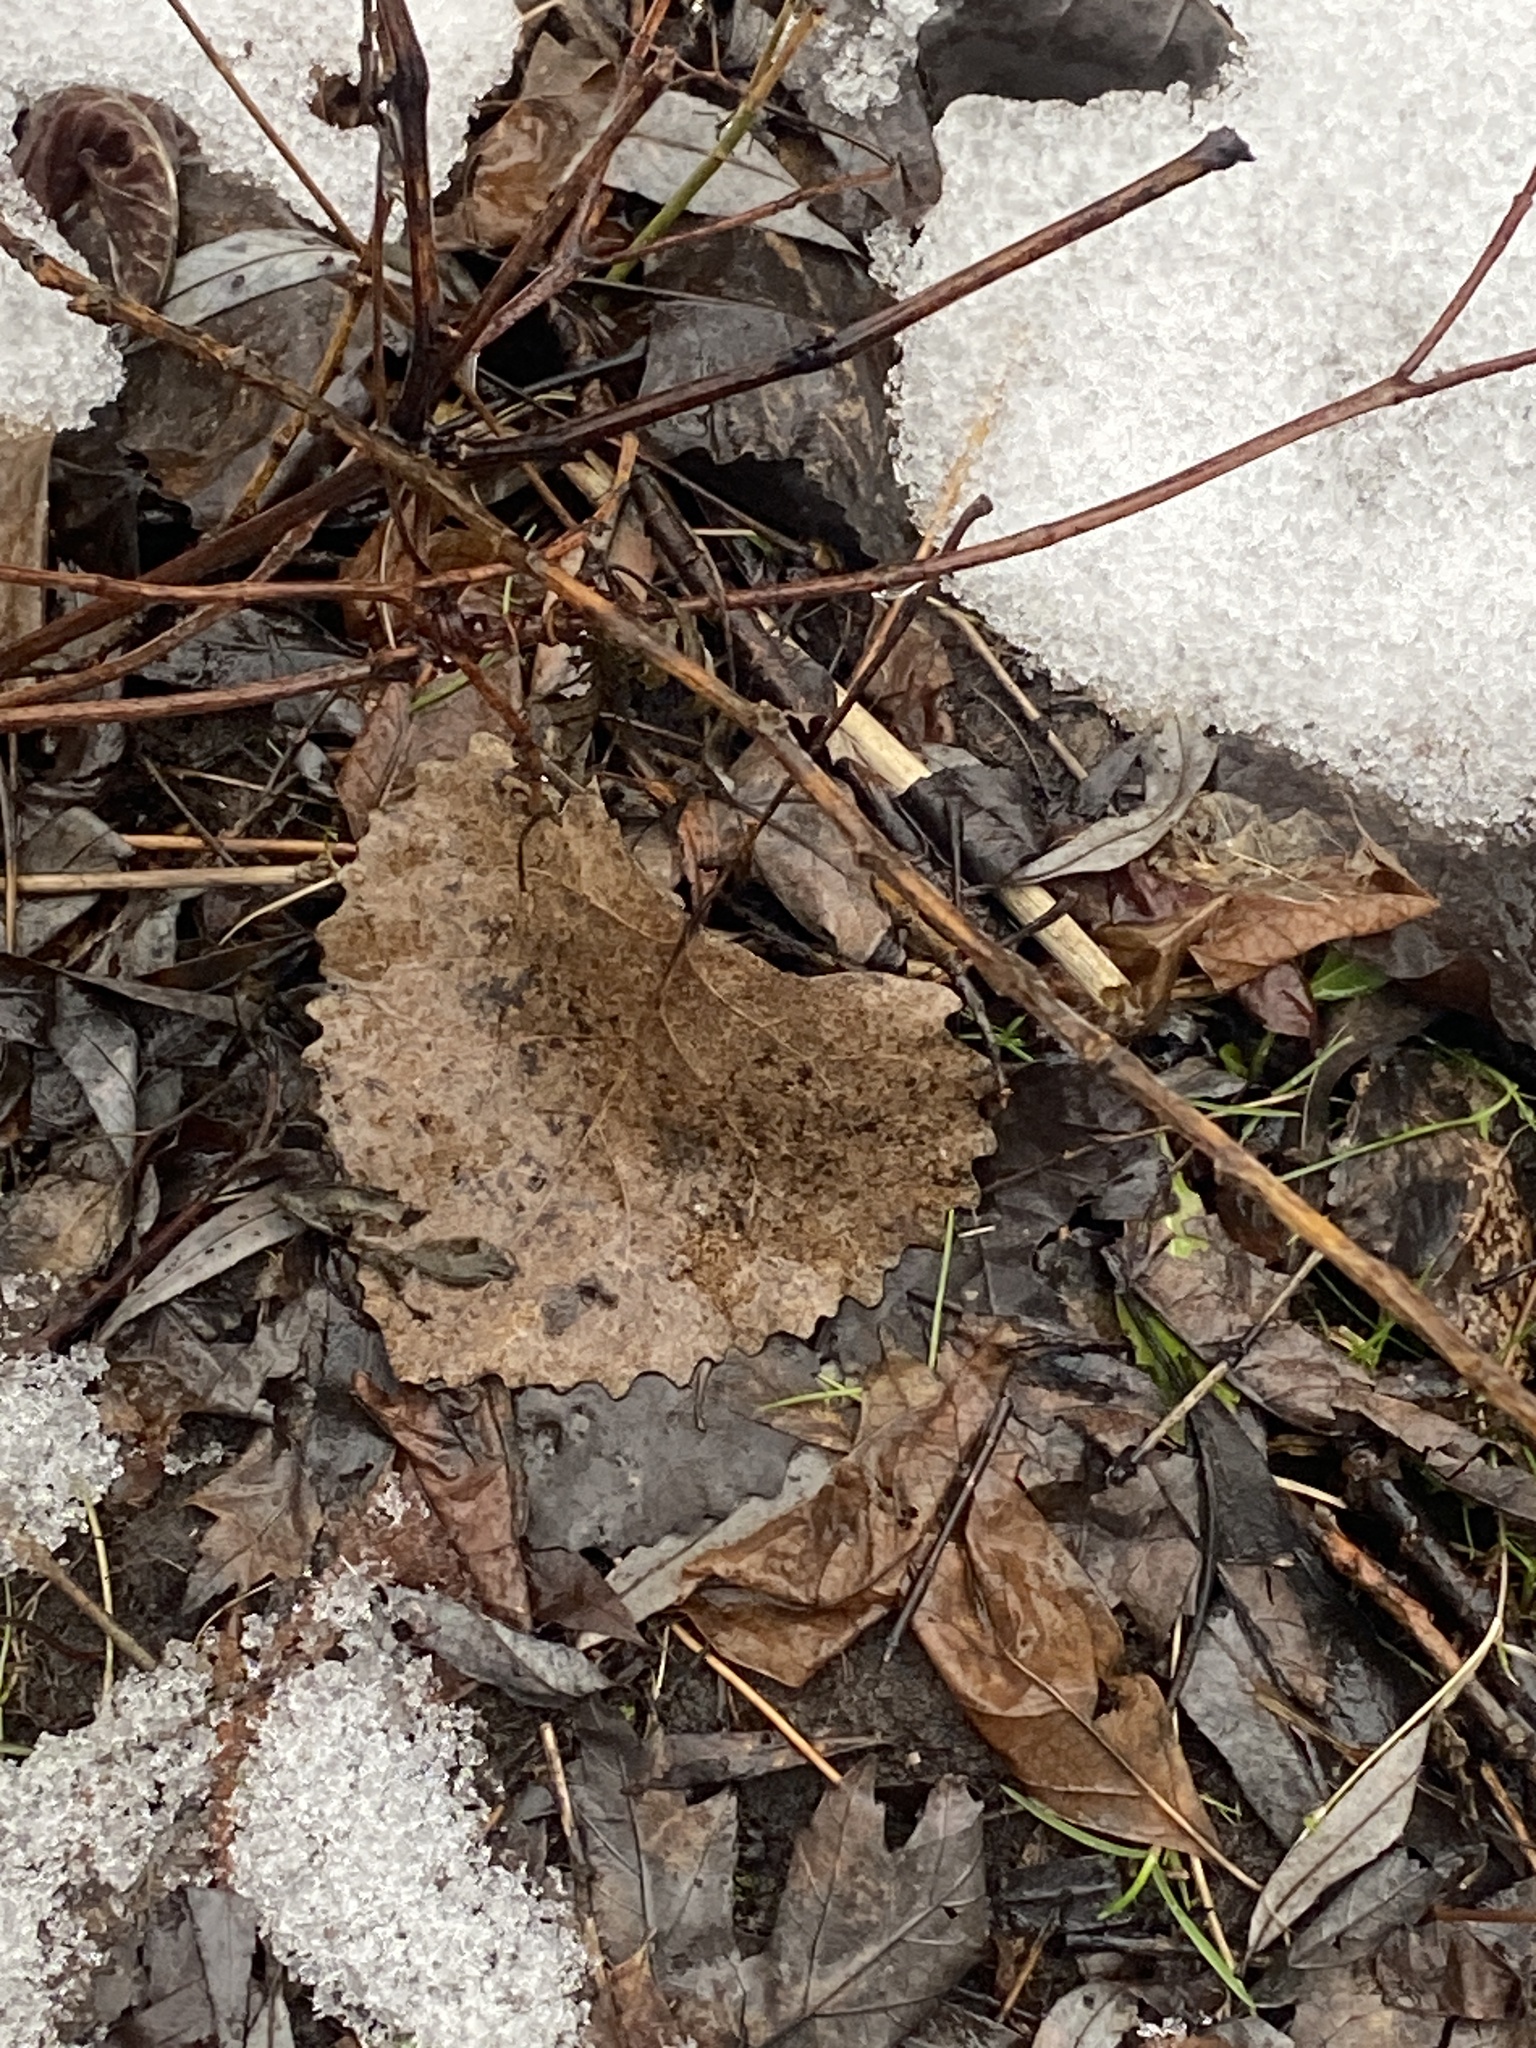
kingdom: Plantae
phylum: Tracheophyta
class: Magnoliopsida
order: Malpighiales
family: Salicaceae
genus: Populus
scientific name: Populus deltoides
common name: Eastern cottonwood
